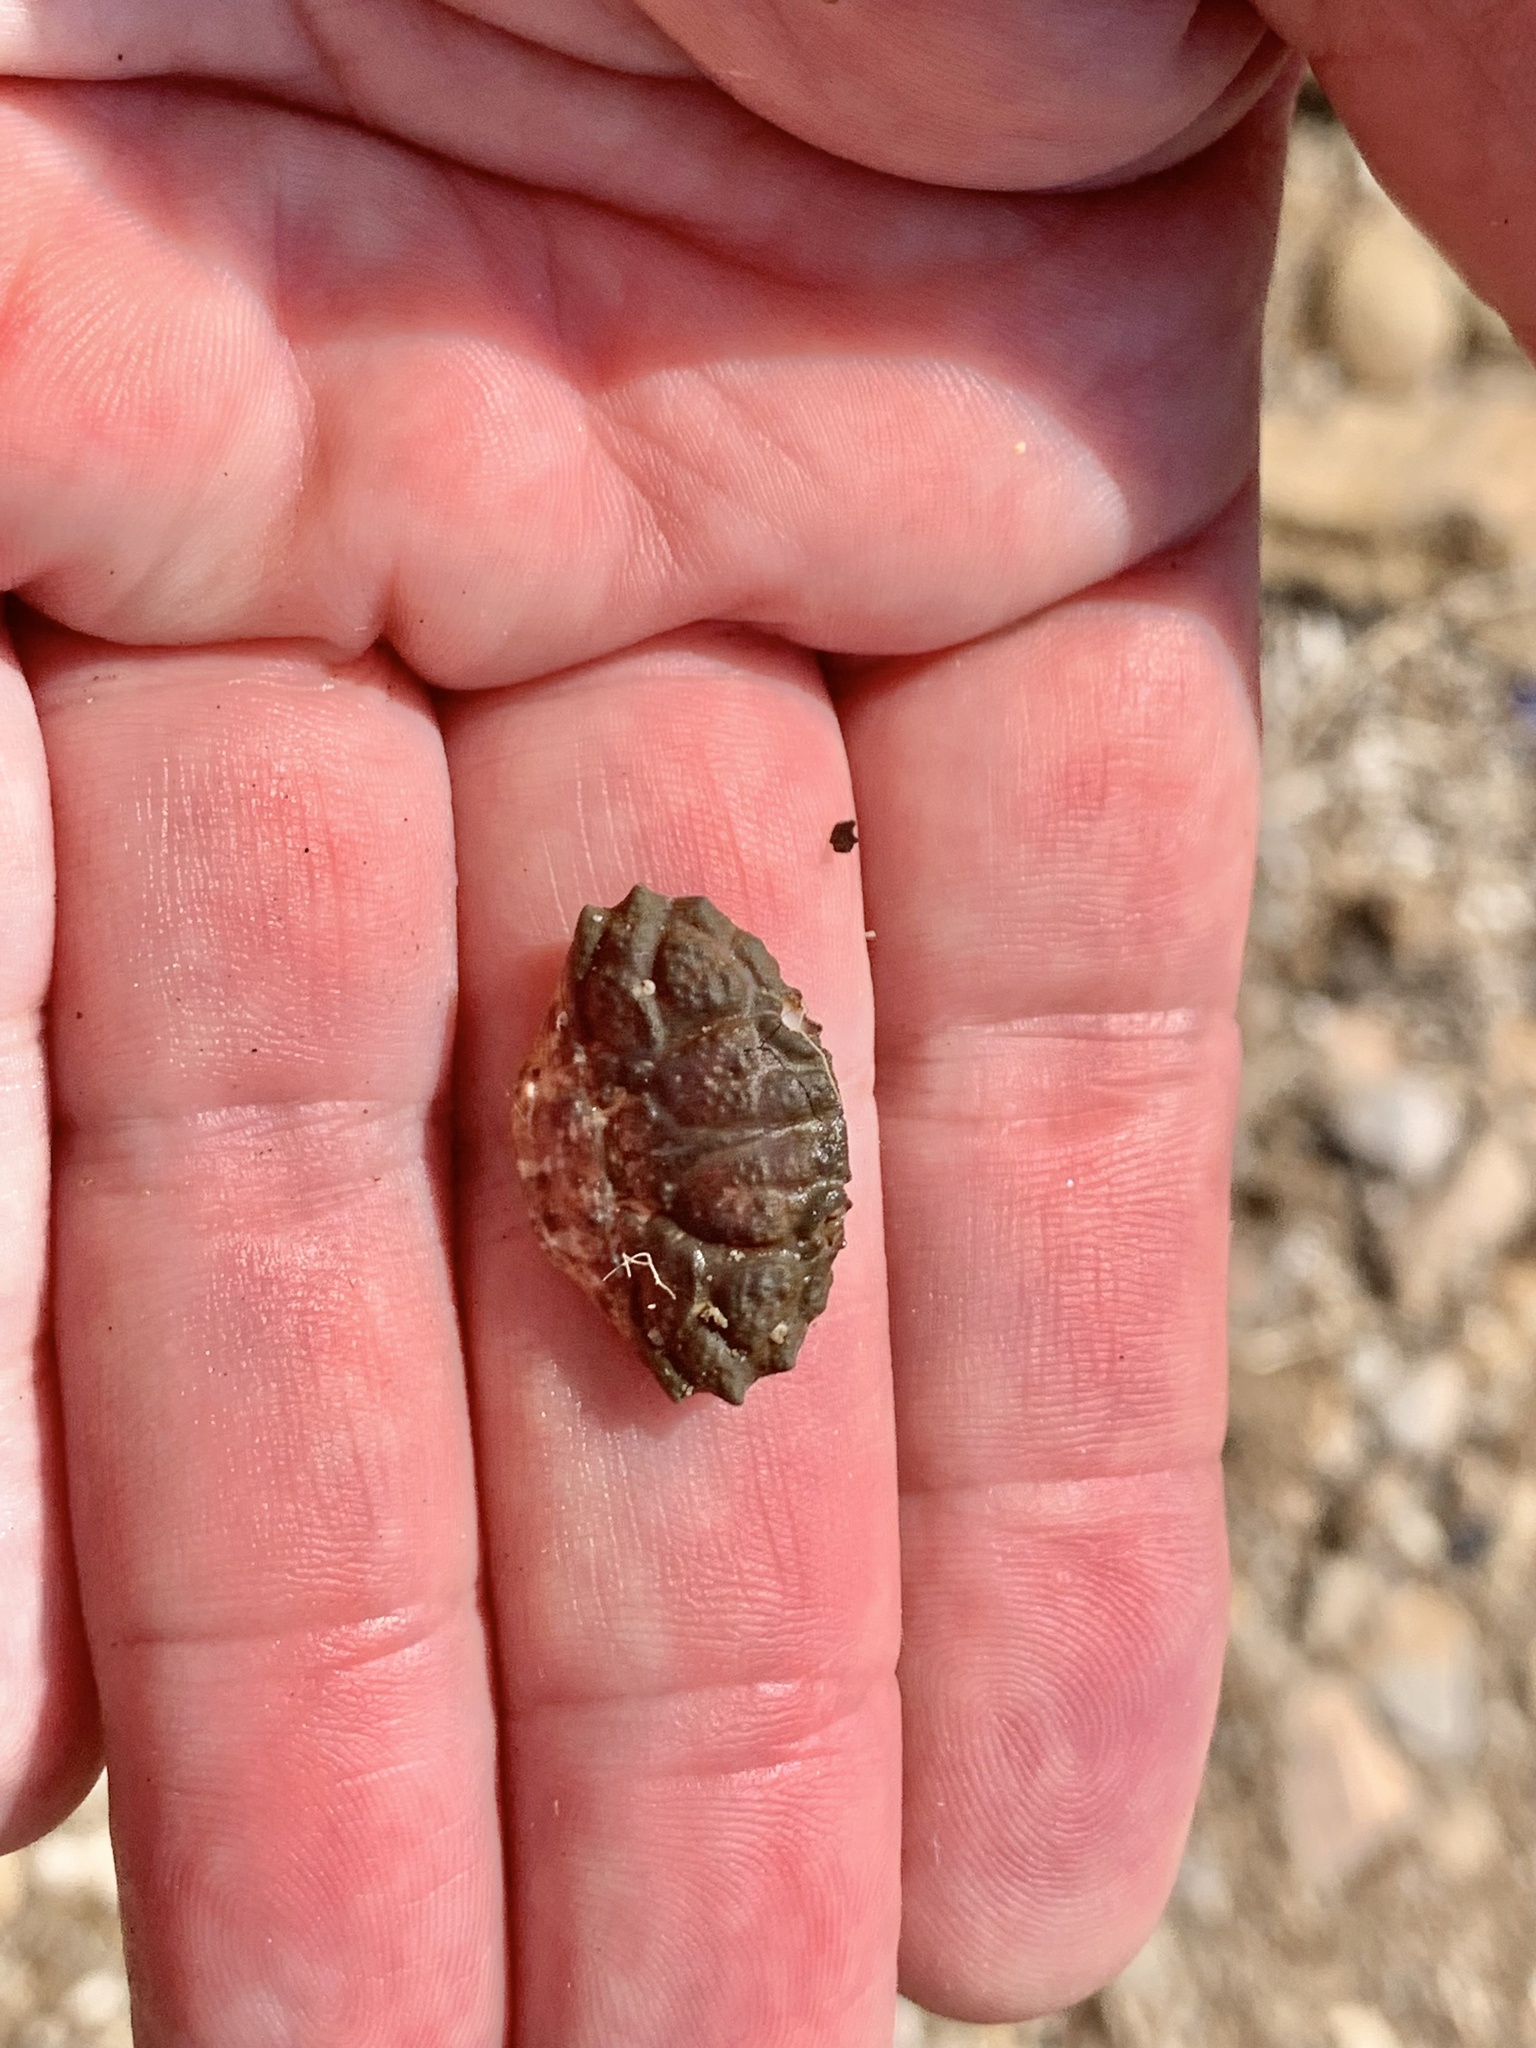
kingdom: Animalia
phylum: Arthropoda
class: Malacostraca
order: Decapoda
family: Xanthidae
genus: Xantho
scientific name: Xantho hydrophilus
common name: Montagu's crab
